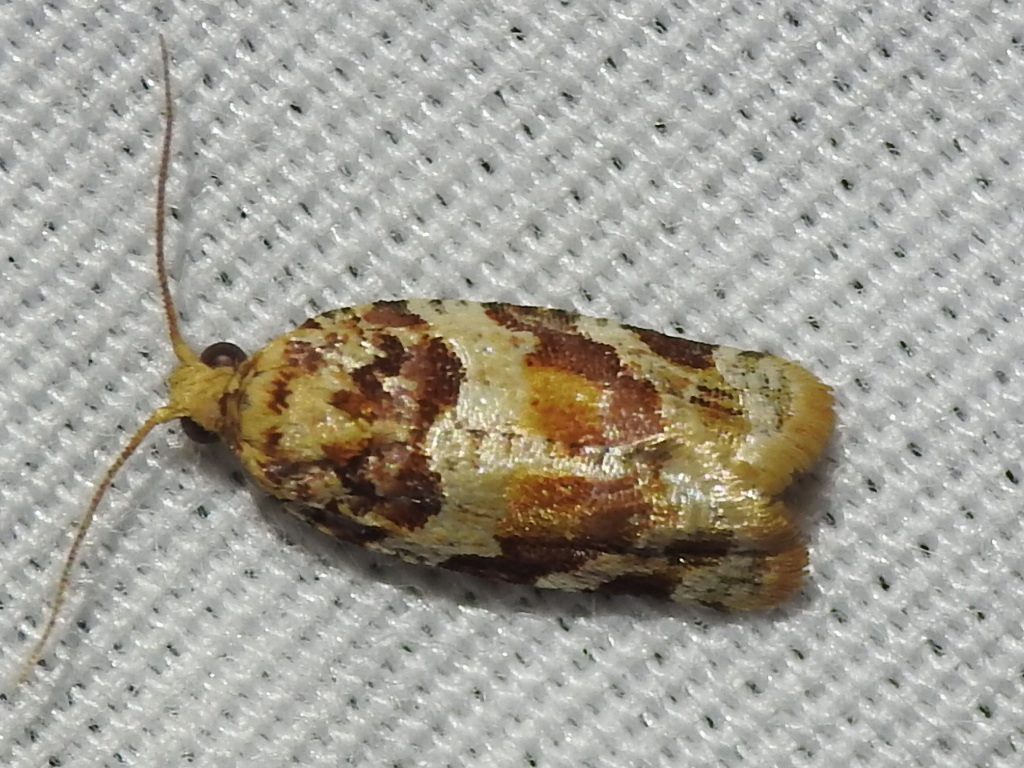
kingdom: Animalia
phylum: Arthropoda
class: Insecta
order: Lepidoptera
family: Tortricidae
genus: Argyrotaenia
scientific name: Argyrotaenia kimballi
